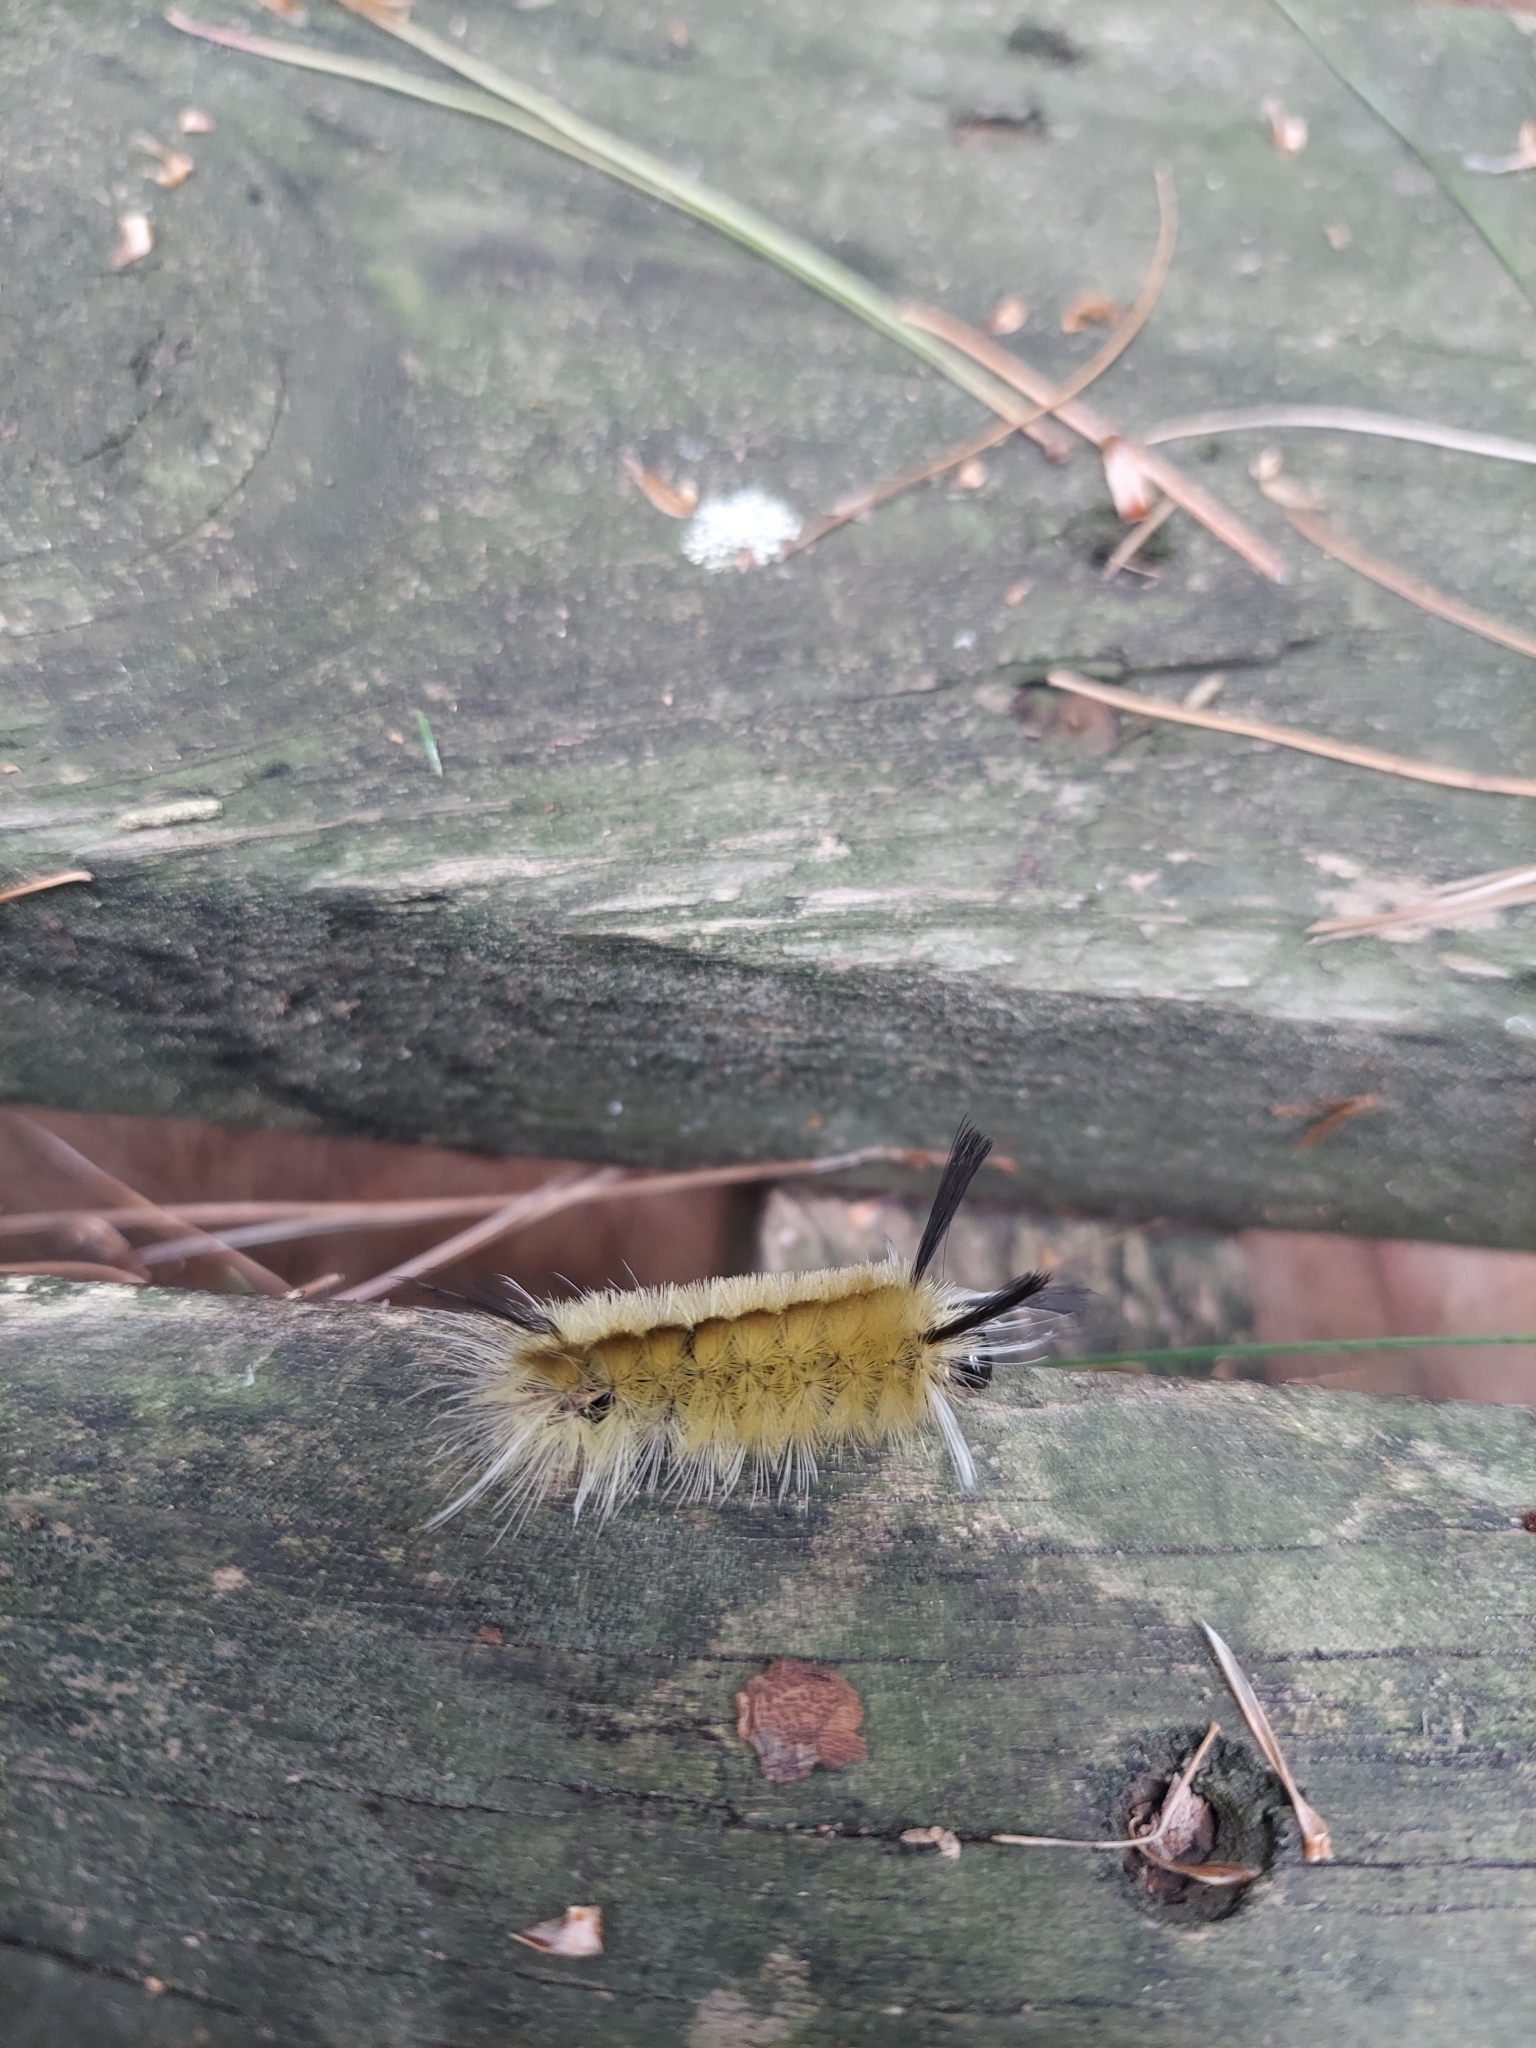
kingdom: Animalia
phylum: Arthropoda
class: Insecta
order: Lepidoptera
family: Erebidae
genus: Halysidota
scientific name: Halysidota tessellaris
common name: Banded tussock moth
